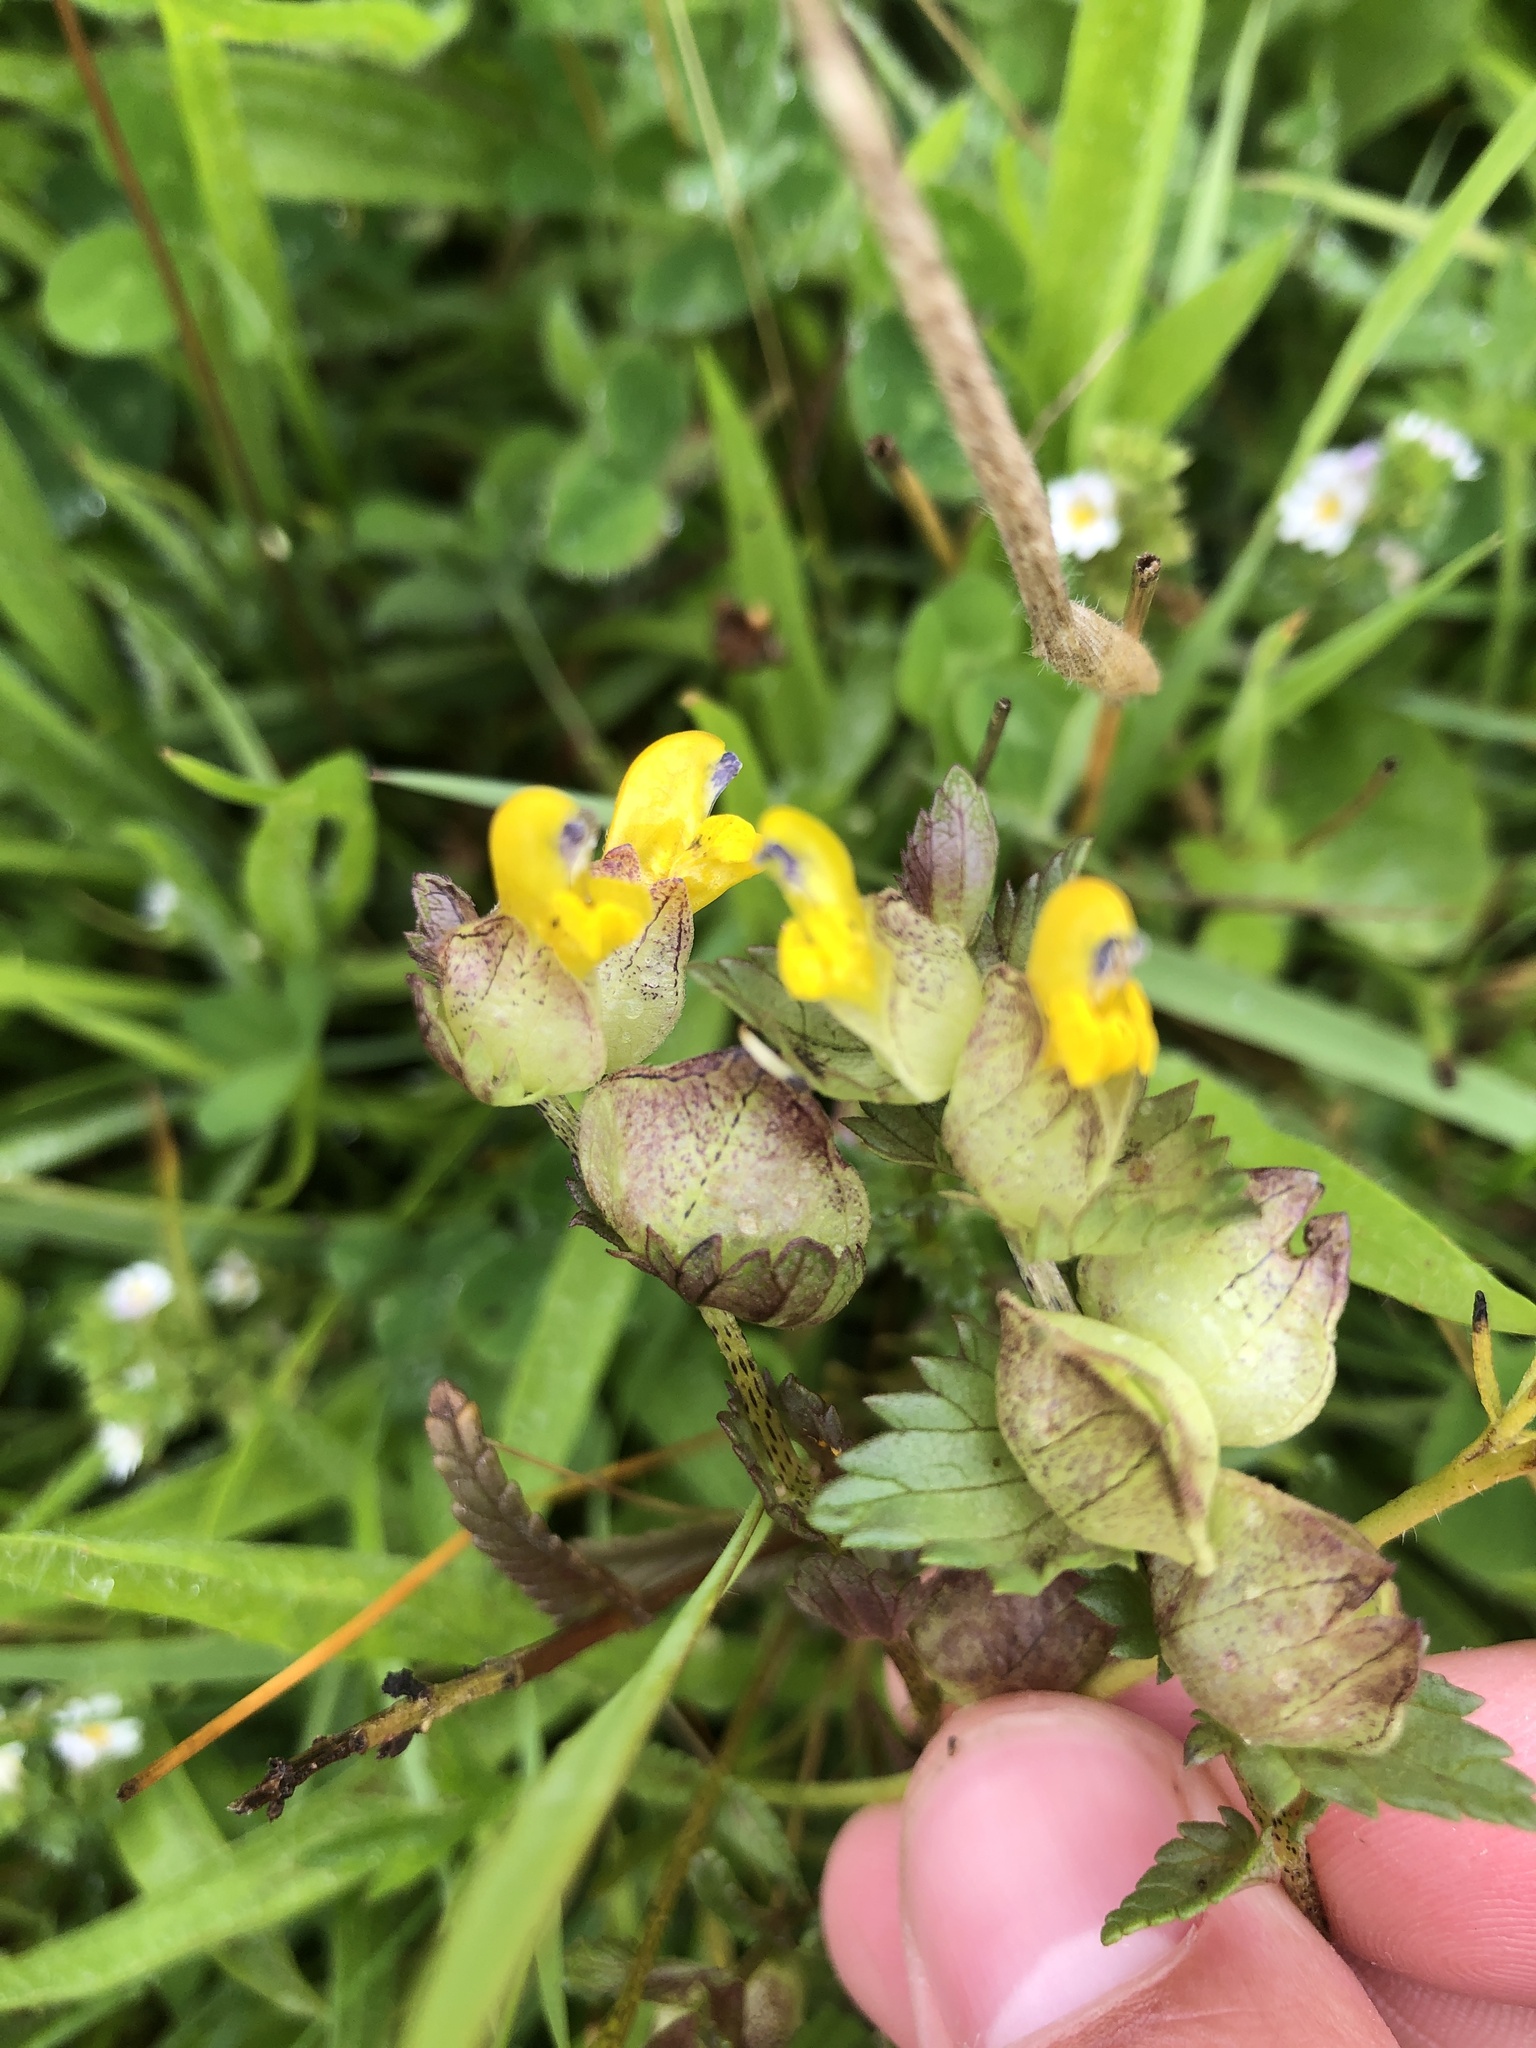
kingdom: Plantae
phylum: Tracheophyta
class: Magnoliopsida
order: Lamiales
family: Orobanchaceae
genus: Rhinanthus
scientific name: Rhinanthus minor
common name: Yellow-rattle
